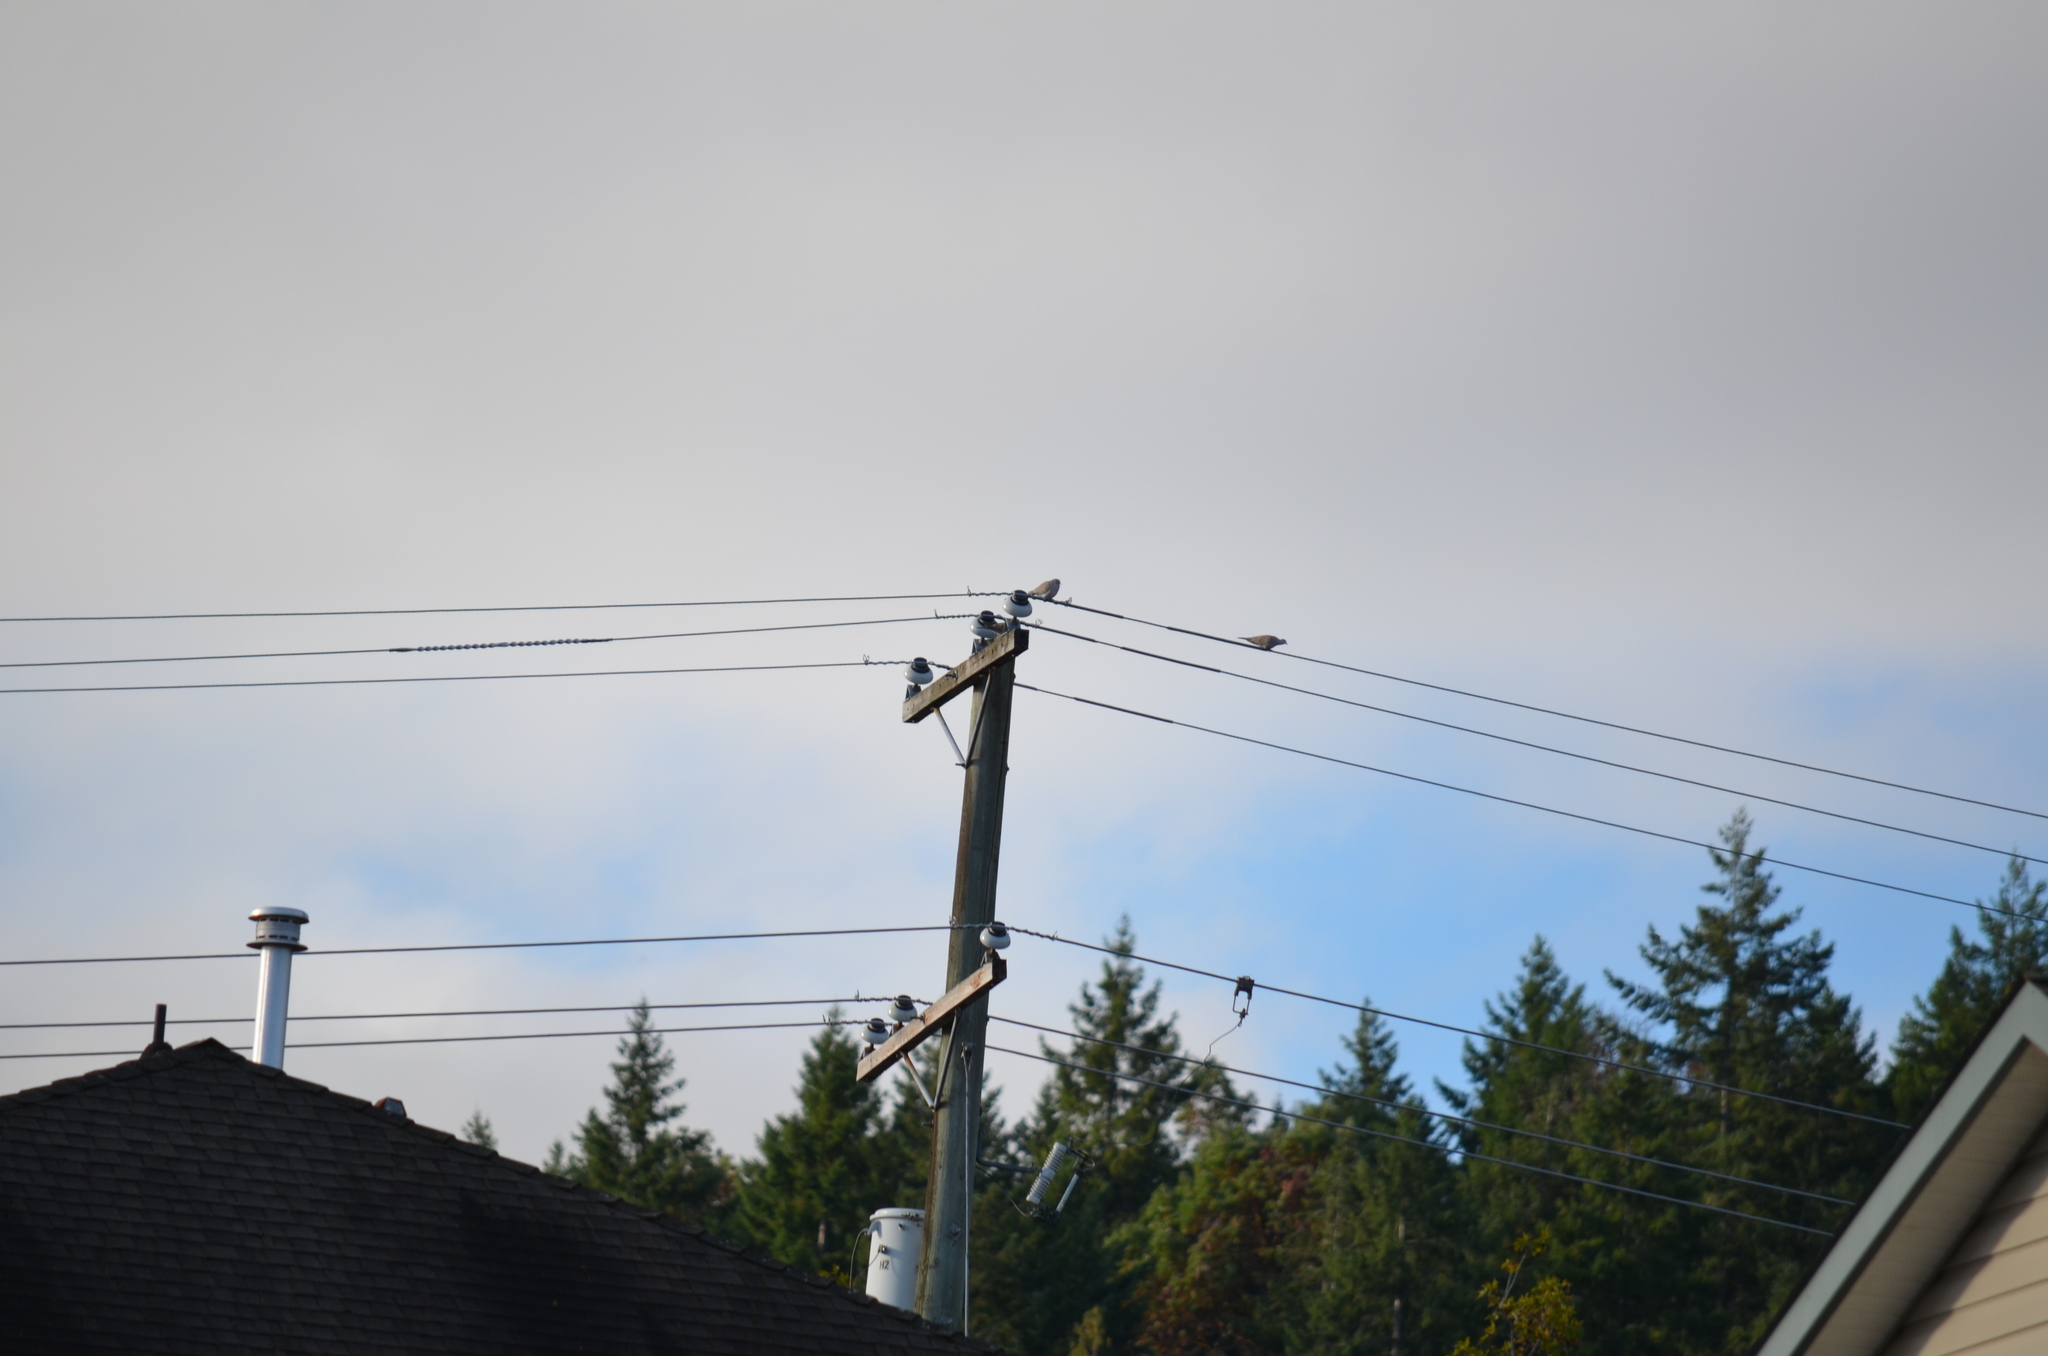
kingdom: Animalia
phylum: Chordata
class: Aves
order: Columbiformes
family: Columbidae
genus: Streptopelia
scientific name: Streptopelia decaocto
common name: Eurasian collared dove
